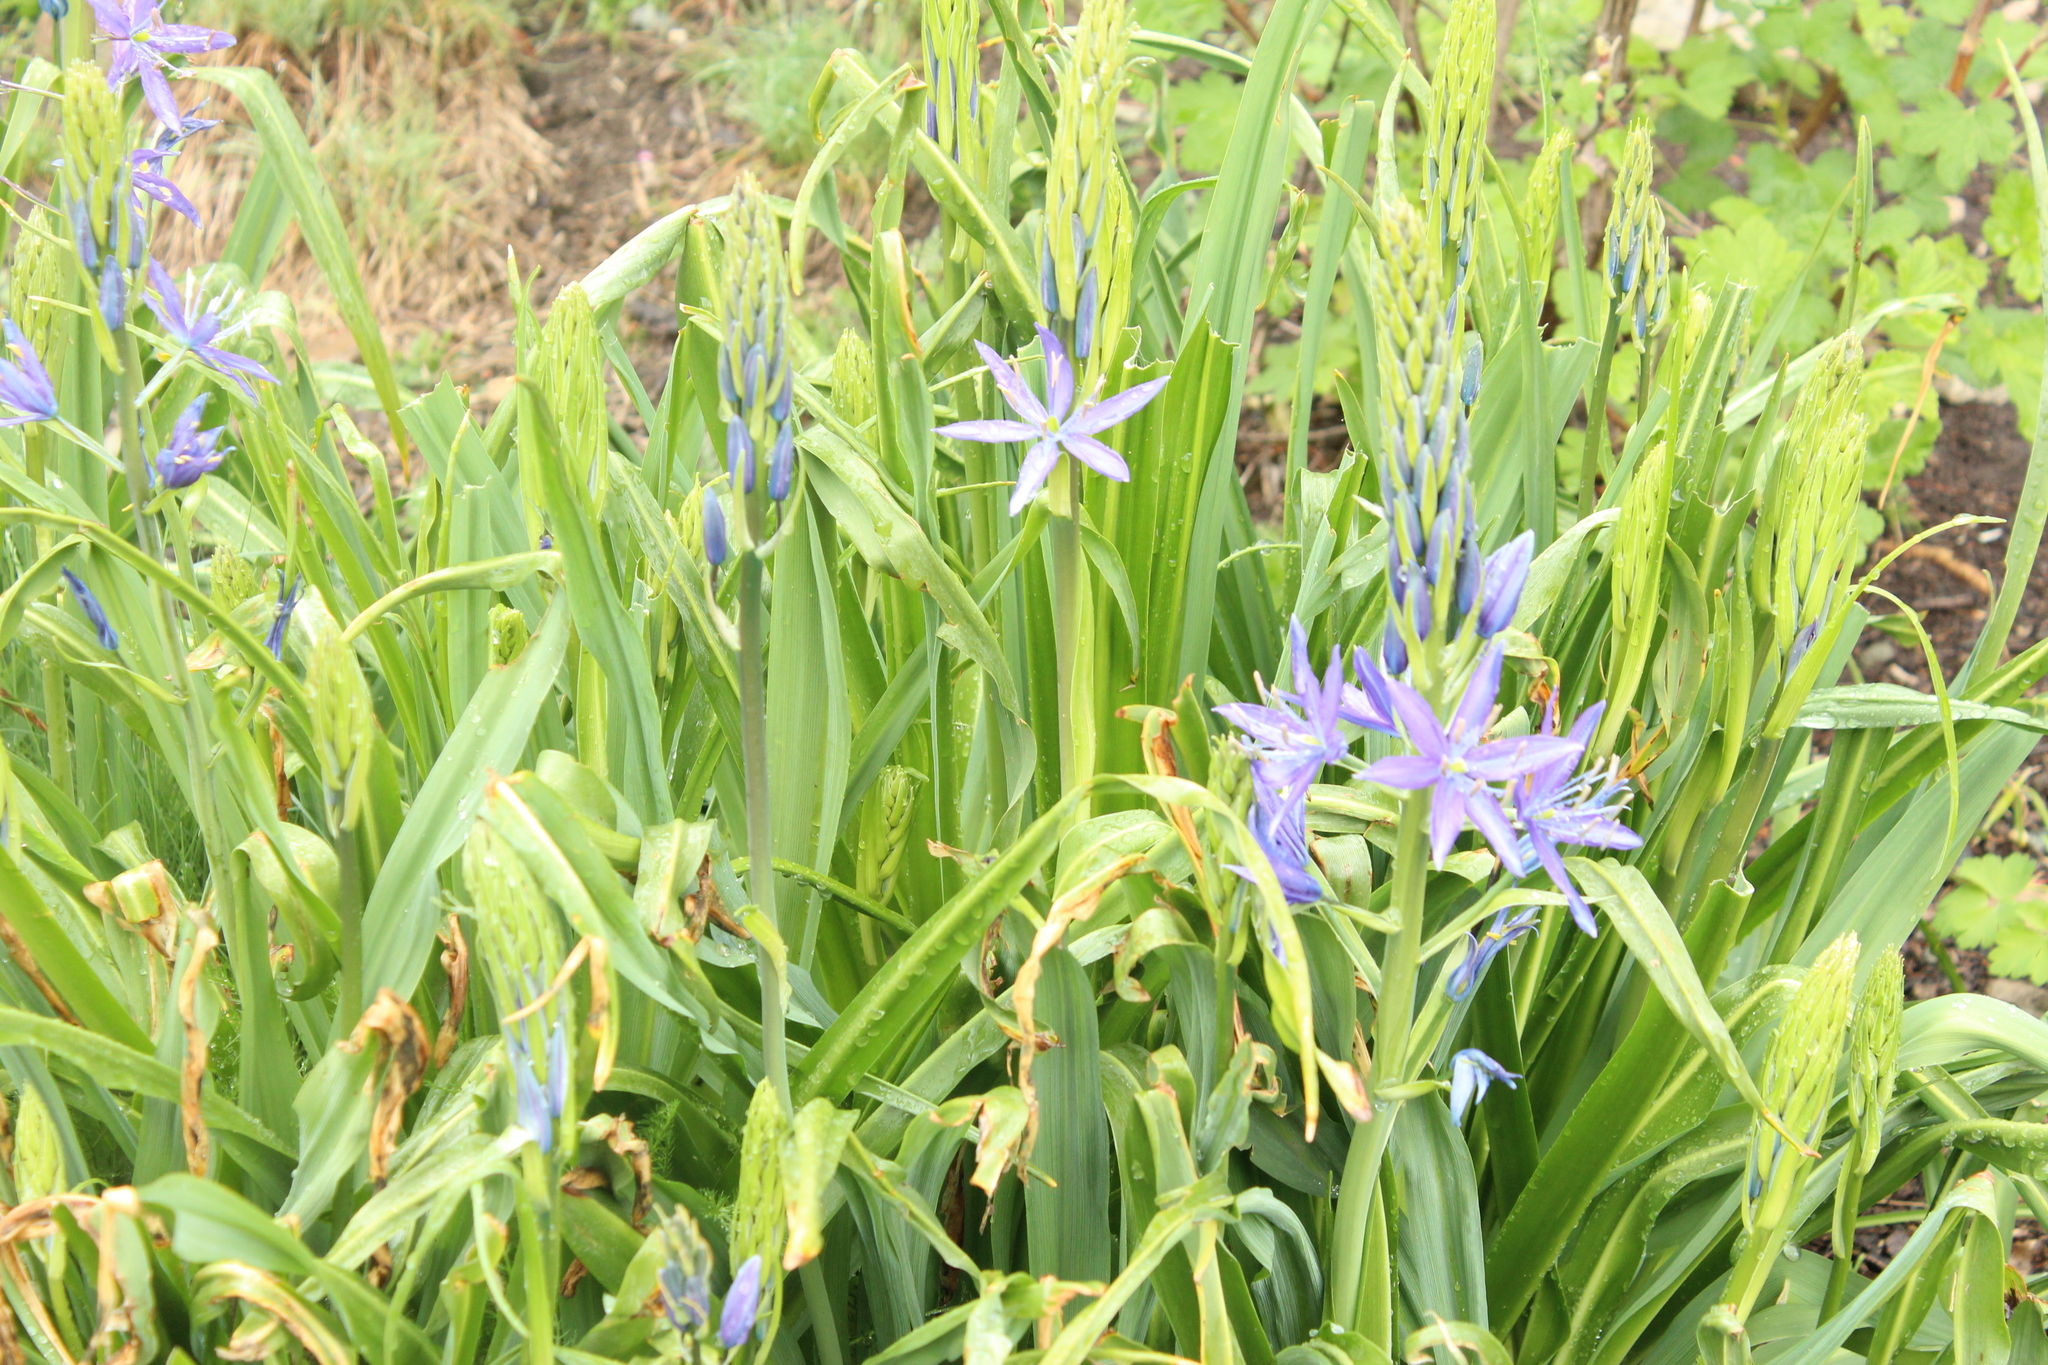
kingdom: Plantae
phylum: Tracheophyta
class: Liliopsida
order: Asparagales
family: Asparagaceae
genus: Camassia
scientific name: Camassia leichtlinii
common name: Leichtlin's camas
